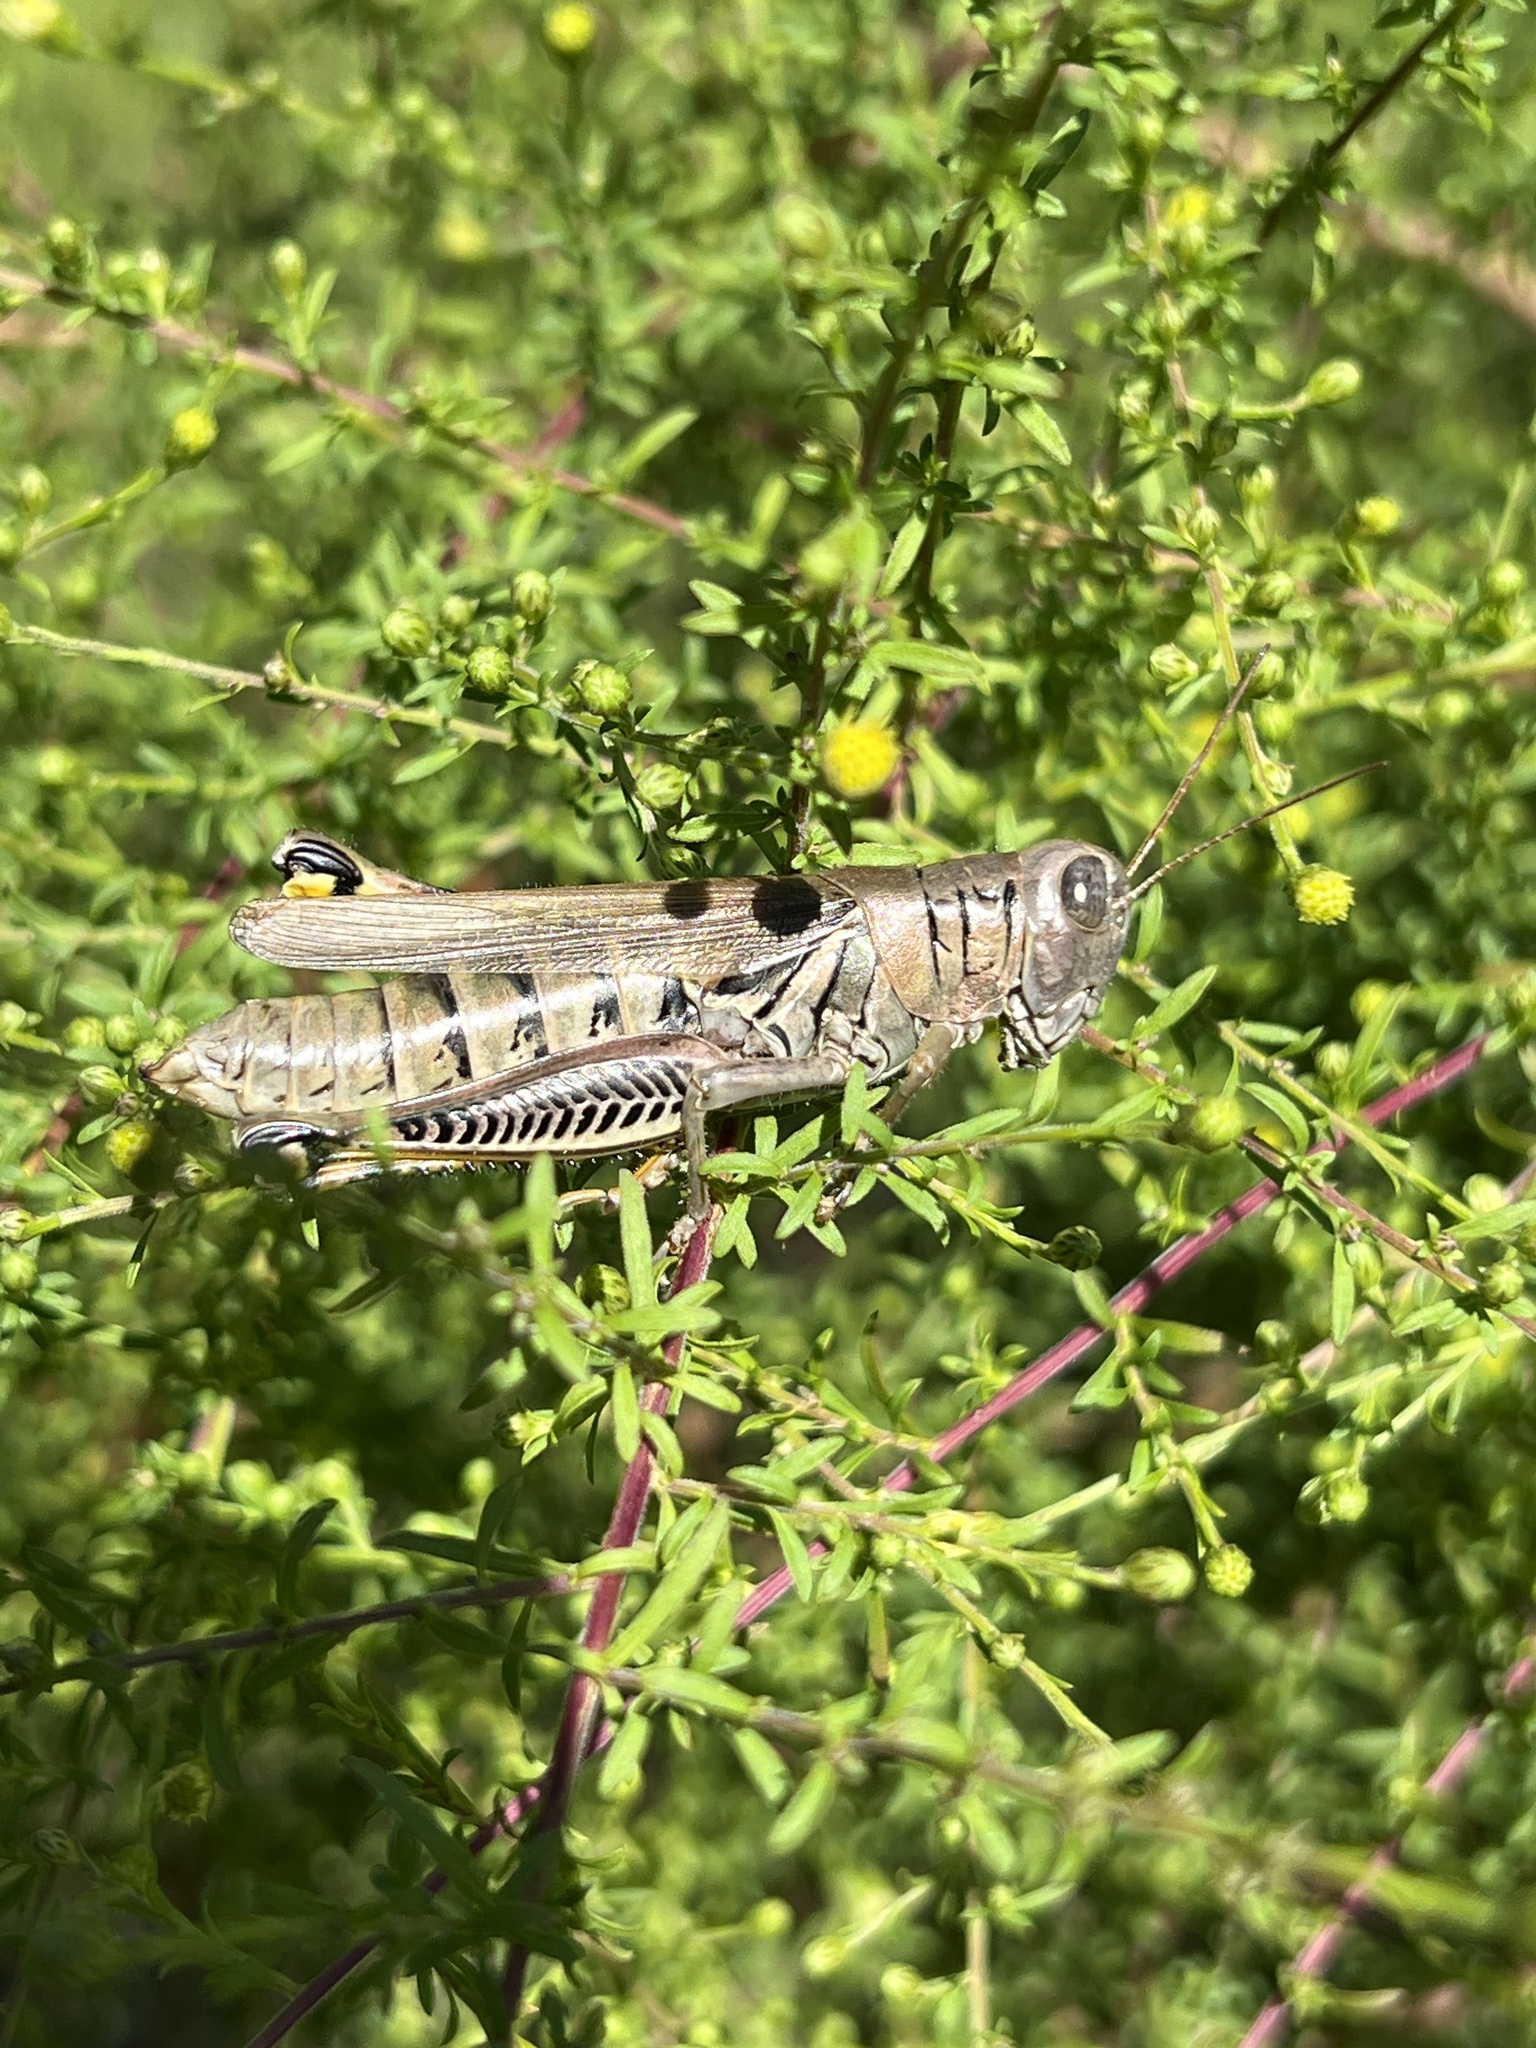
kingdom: Animalia
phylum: Arthropoda
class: Insecta
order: Orthoptera
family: Acrididae
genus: Melanoplus
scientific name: Melanoplus differentialis
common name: Differential grasshopper
